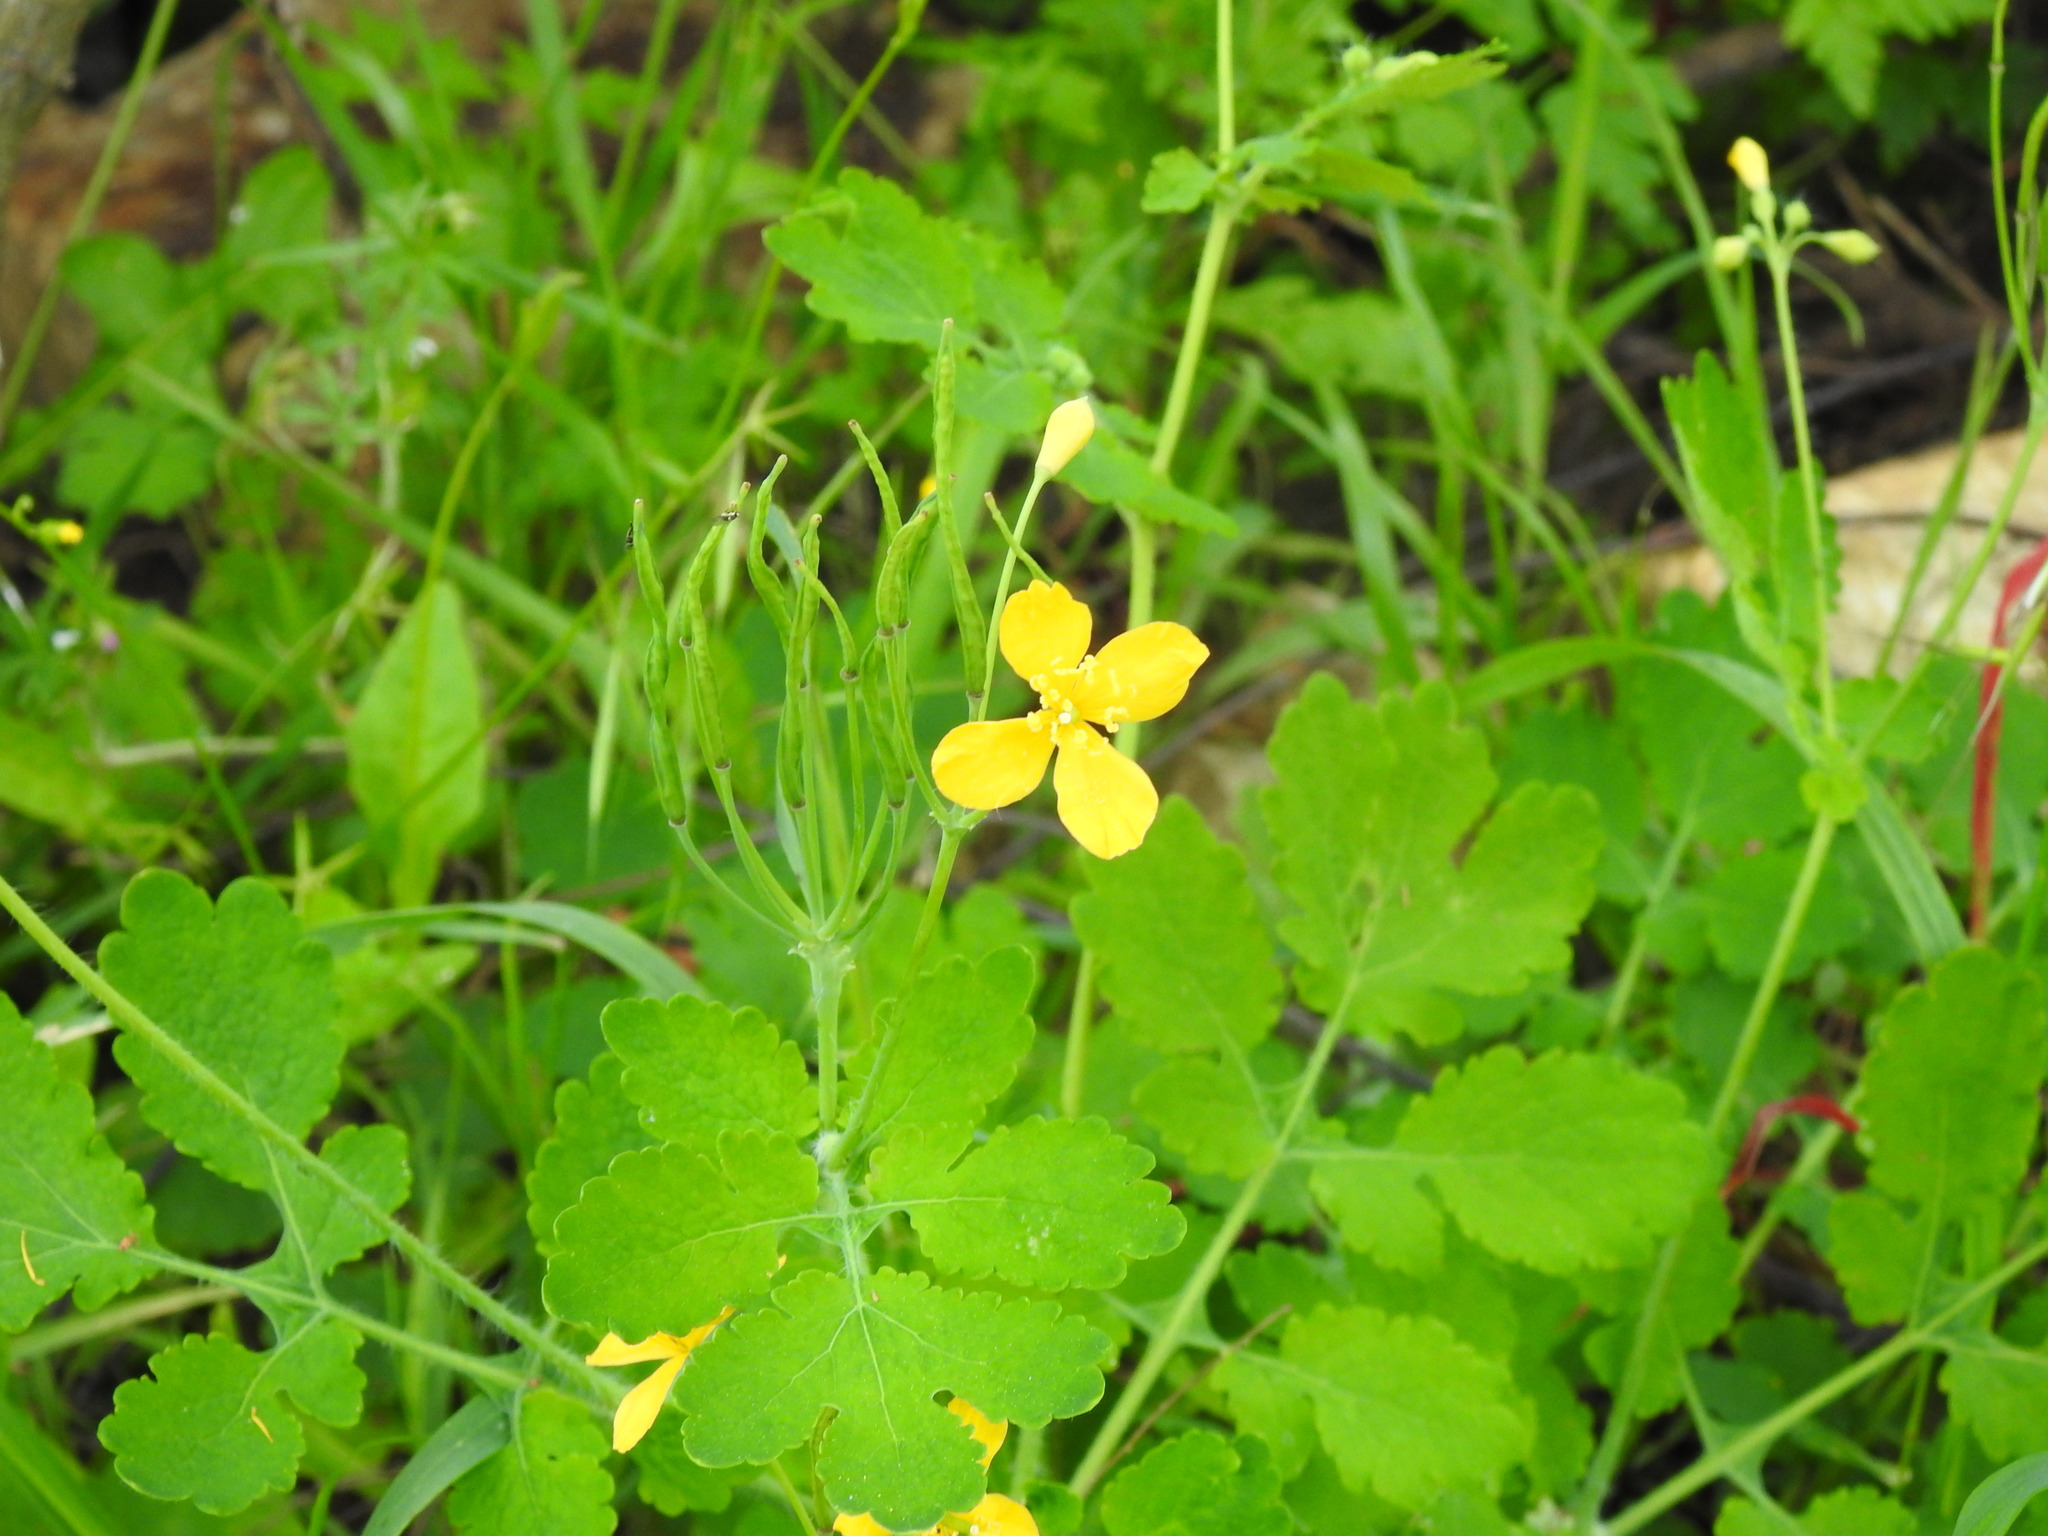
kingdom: Plantae
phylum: Tracheophyta
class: Magnoliopsida
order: Ranunculales
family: Papaveraceae
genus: Chelidonium
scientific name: Chelidonium majus
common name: Greater celandine
